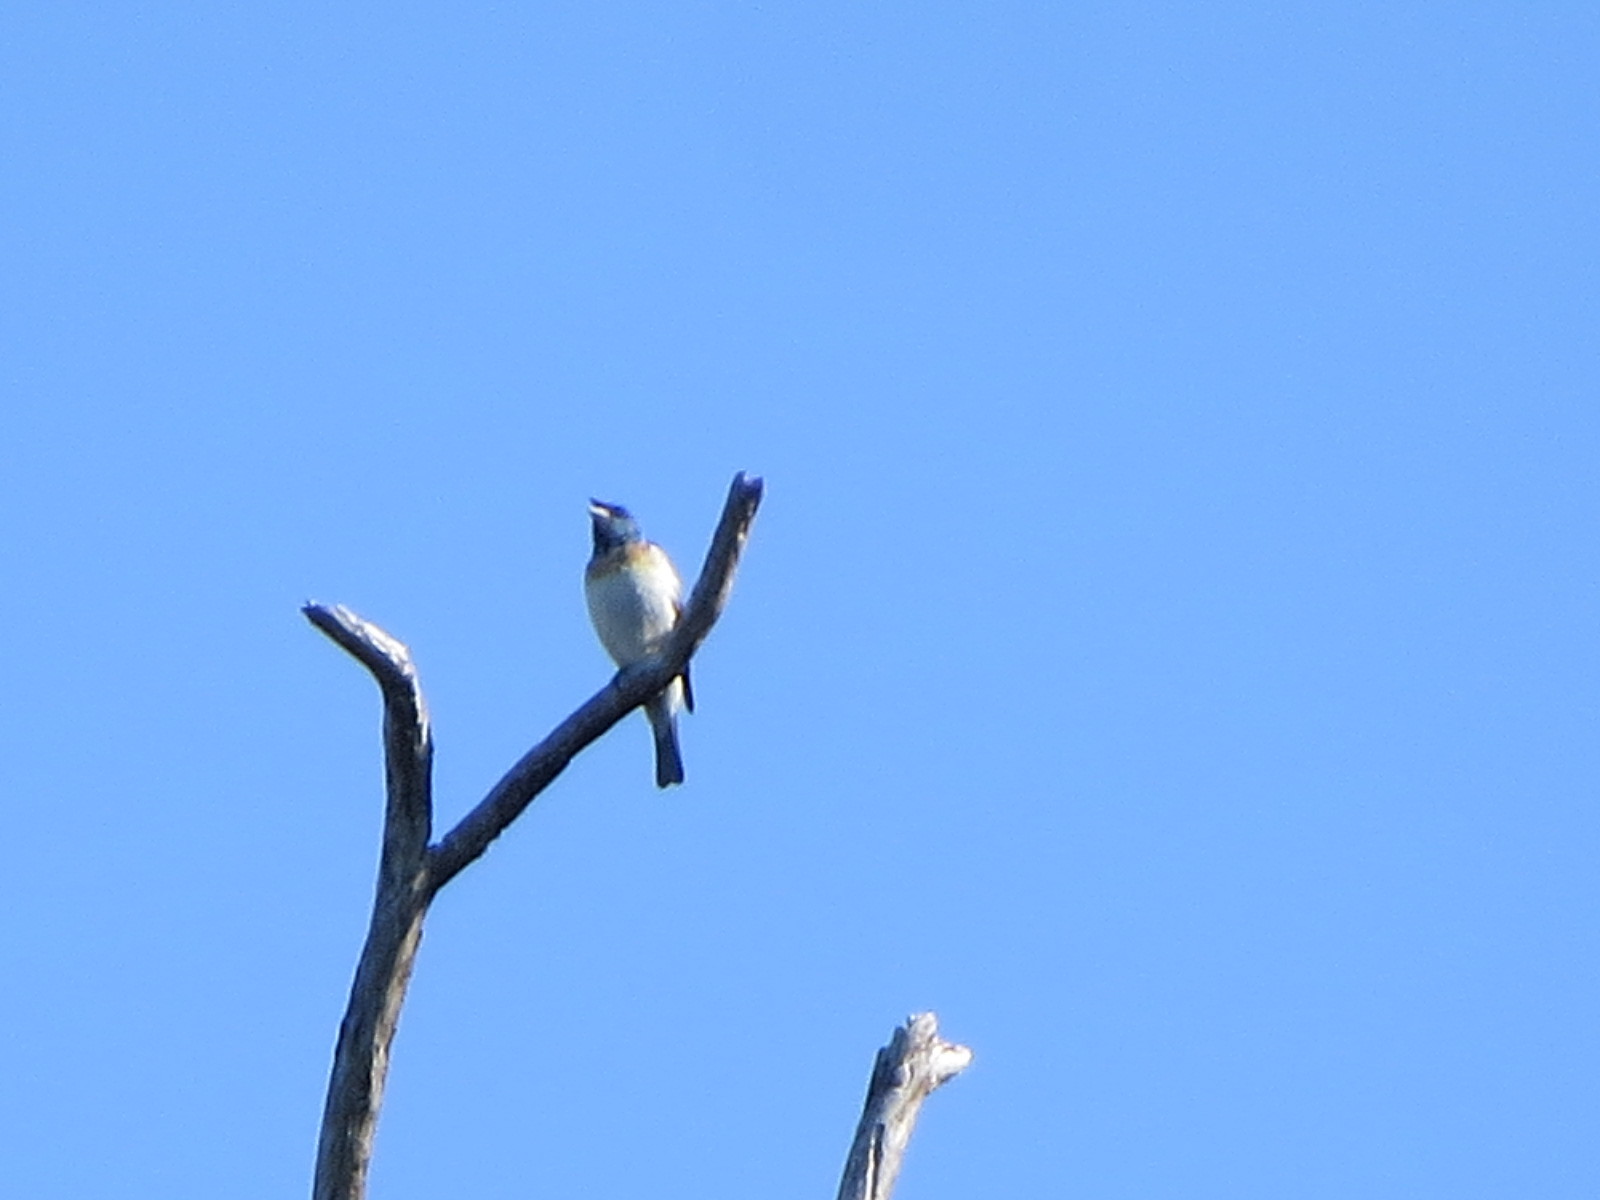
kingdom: Animalia
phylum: Chordata
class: Aves
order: Passeriformes
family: Cardinalidae
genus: Passerina
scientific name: Passerina amoena
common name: Lazuli bunting
